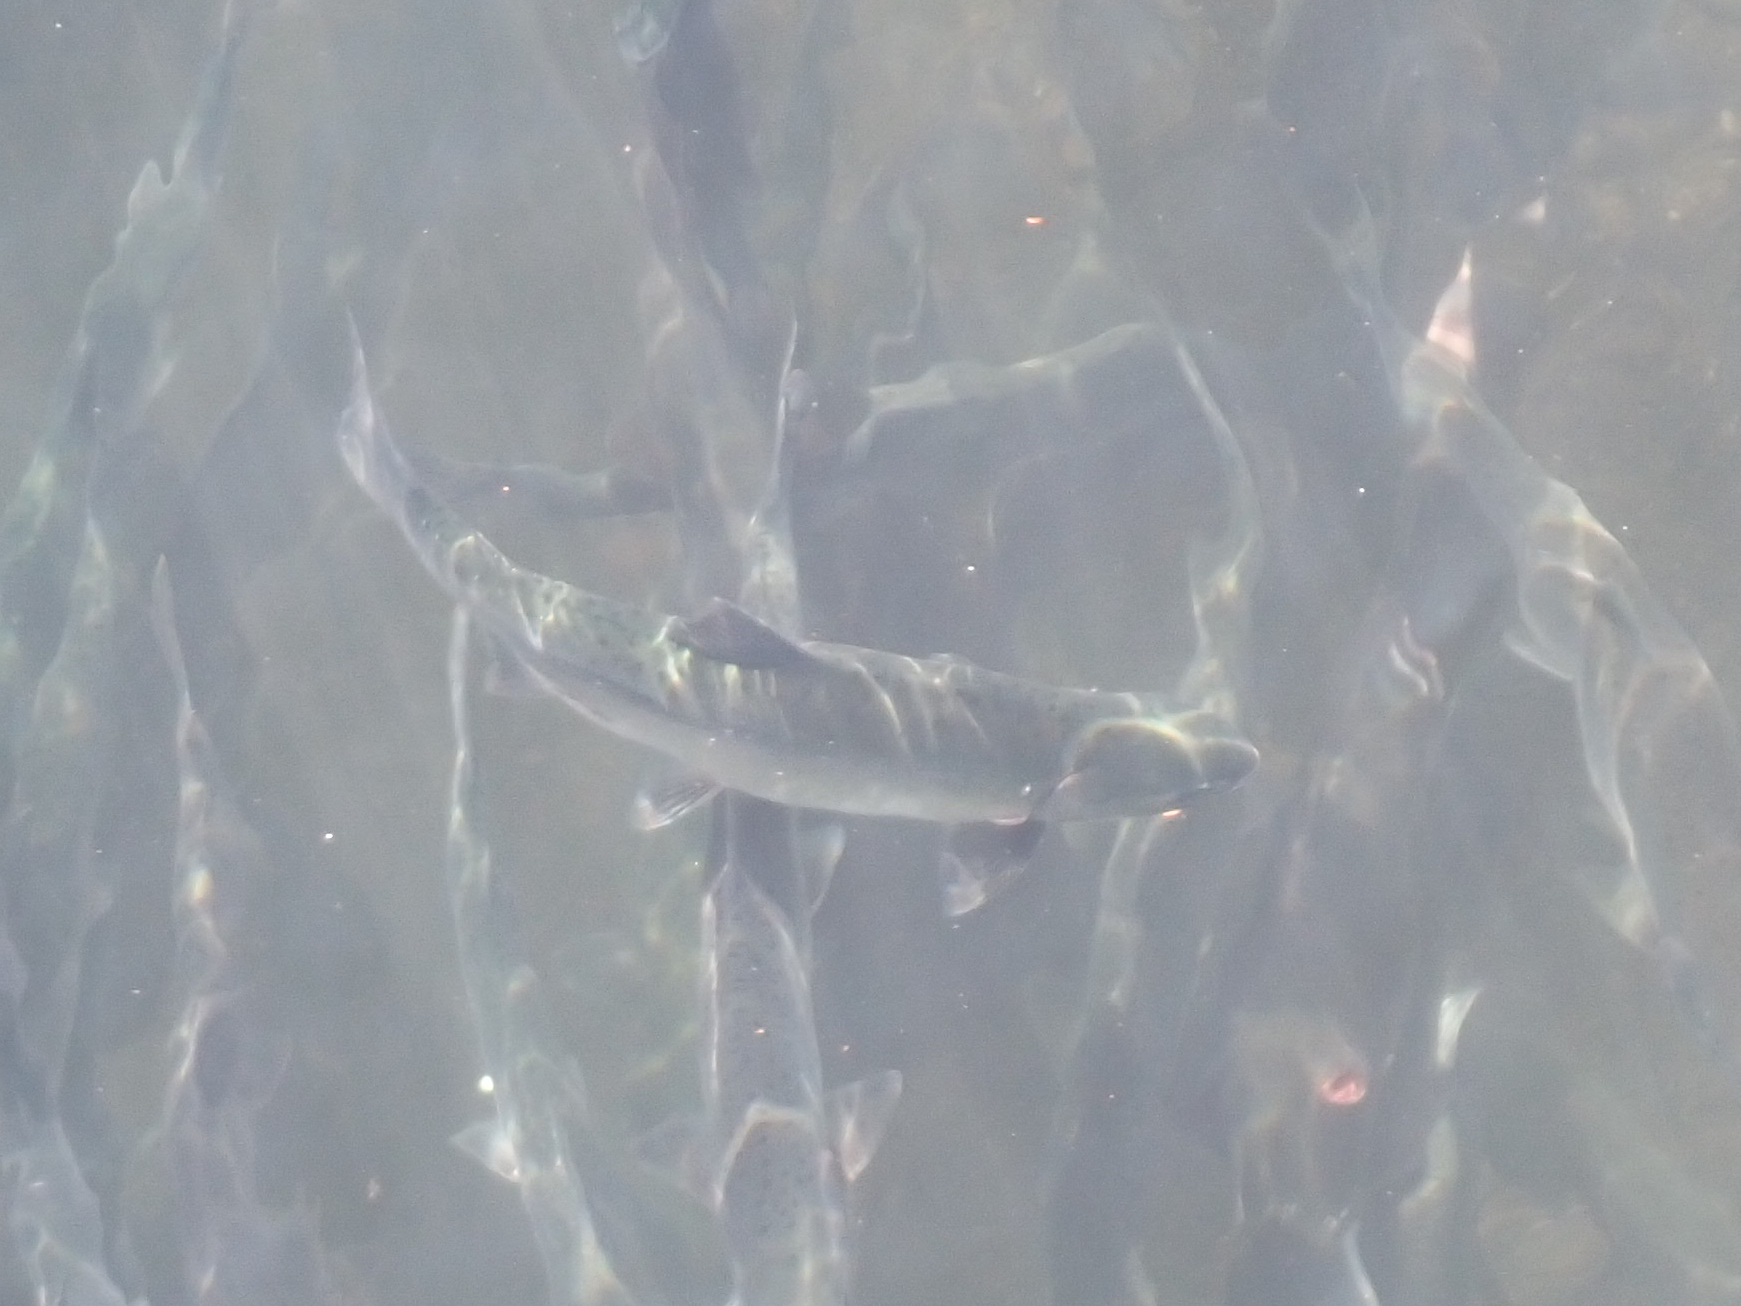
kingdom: Animalia
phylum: Chordata
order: Salmoniformes
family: Salmonidae
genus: Oncorhynchus
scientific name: Oncorhynchus gorbuscha
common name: Humpback salmon
